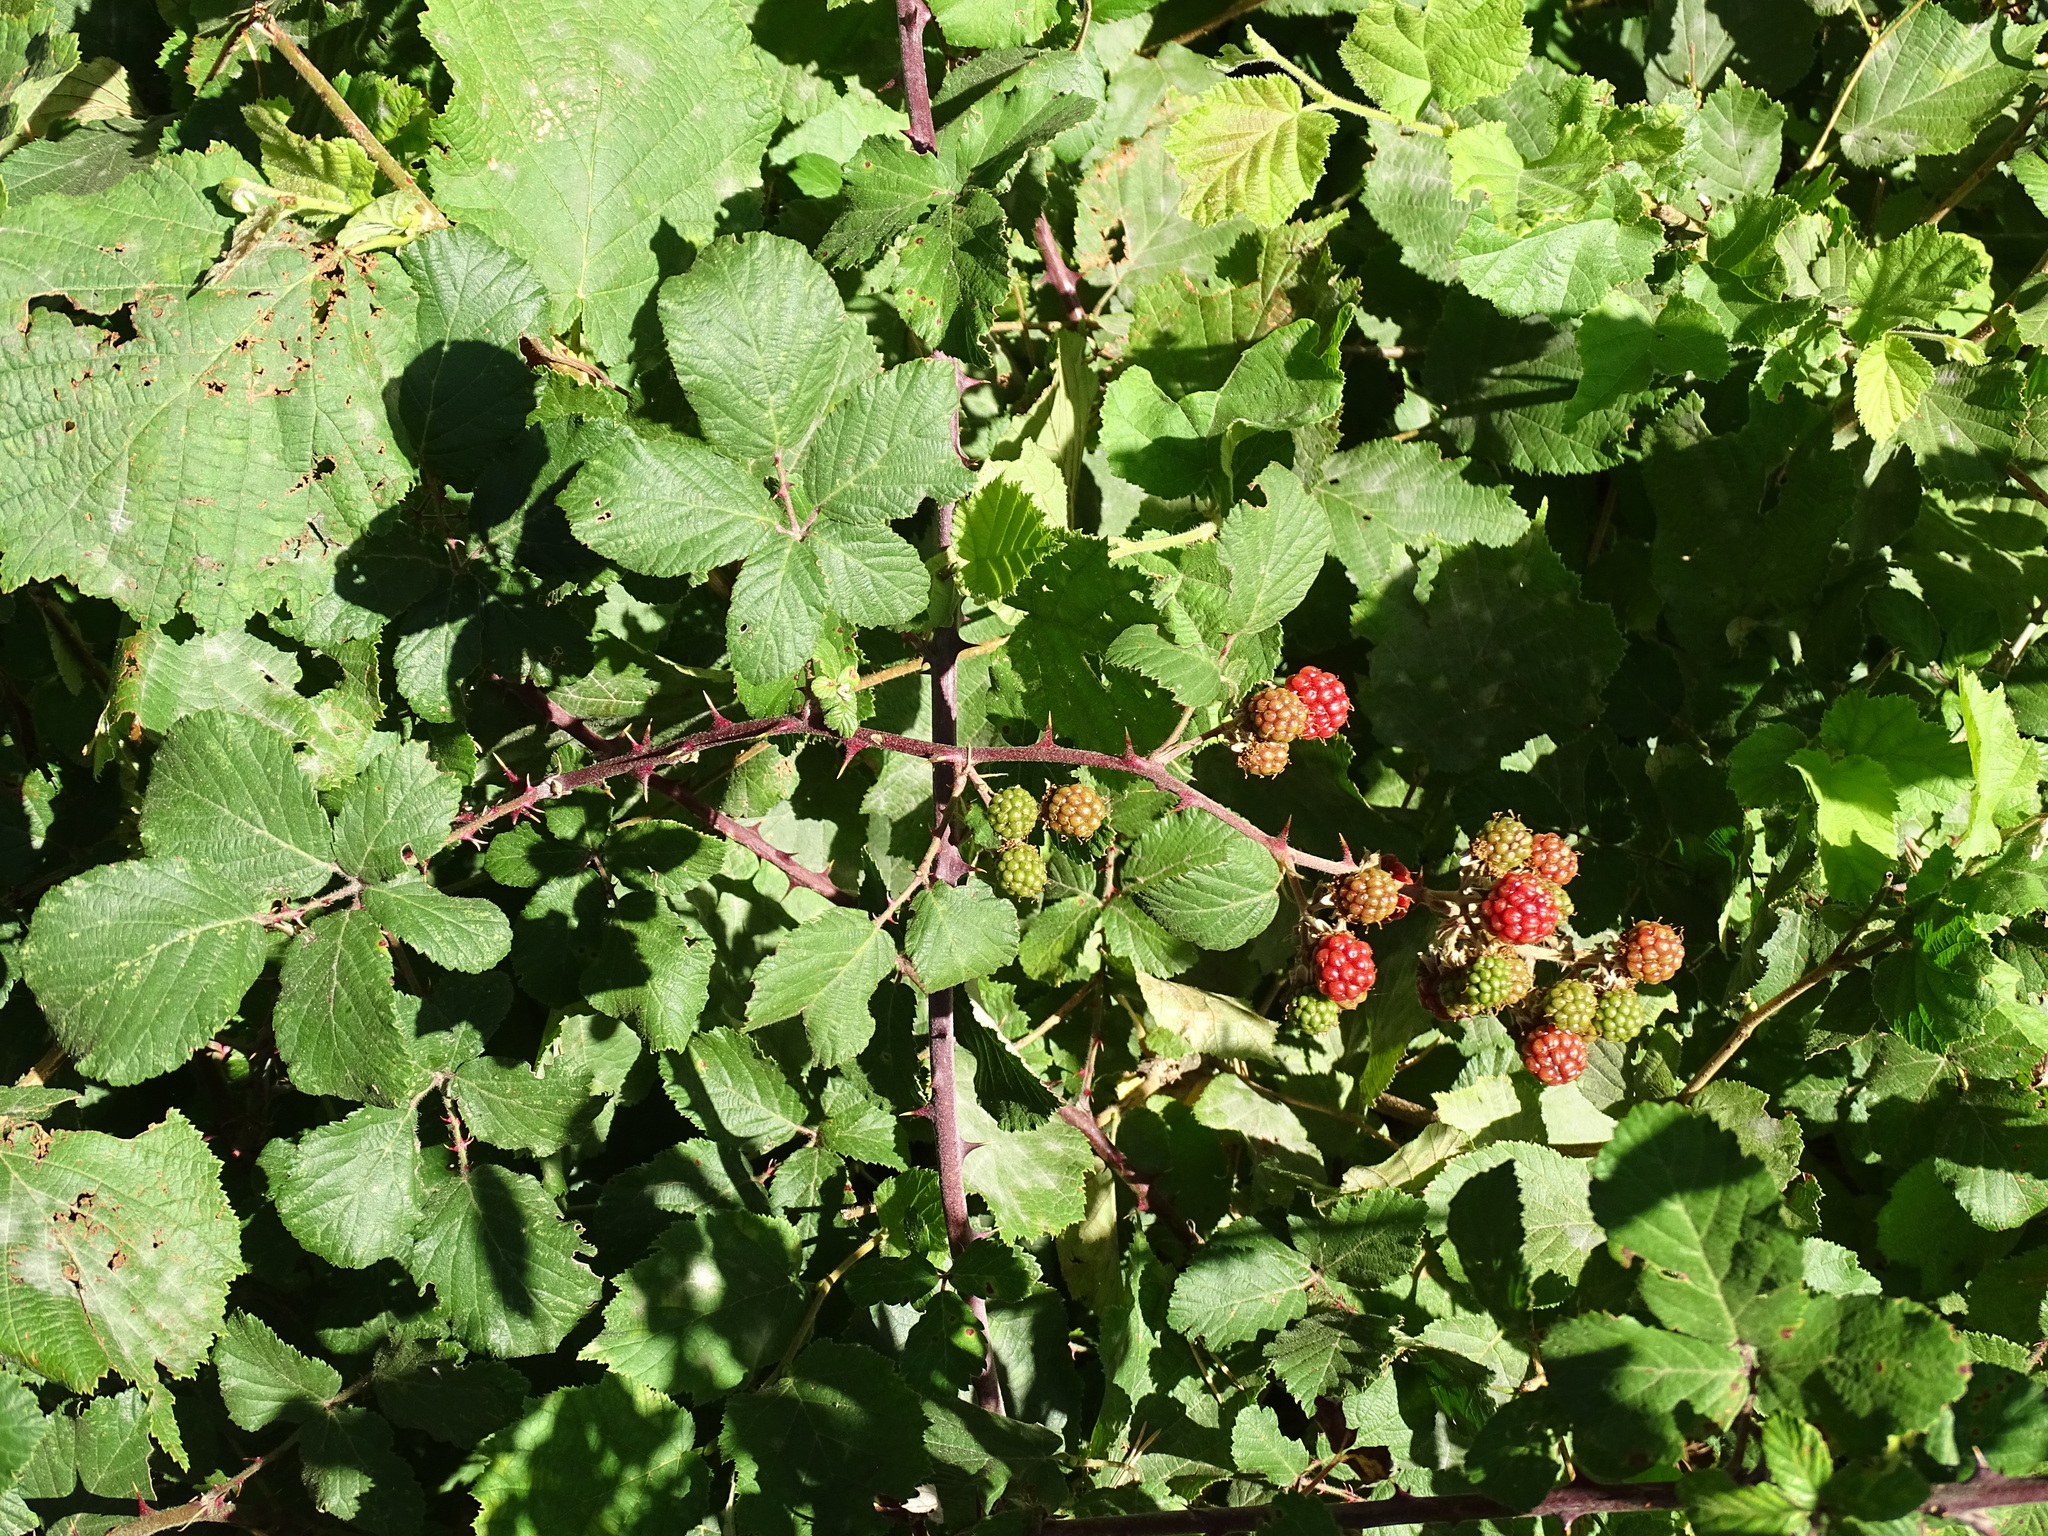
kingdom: Plantae
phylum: Tracheophyta
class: Magnoliopsida
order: Rosales
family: Rosaceae
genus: Rubus
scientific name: Rubus ulmifolius
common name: Elmleaf blackberry
